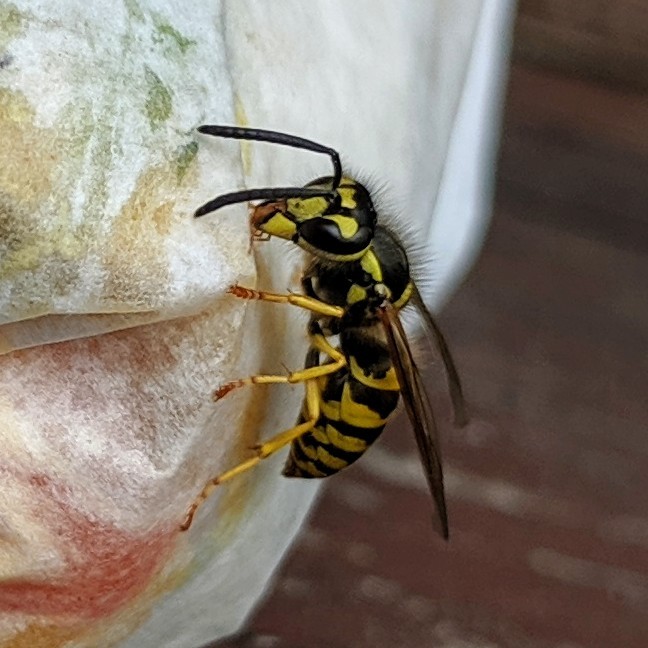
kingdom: Animalia
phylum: Arthropoda
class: Insecta
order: Hymenoptera
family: Vespidae
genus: Vespula
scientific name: Vespula
